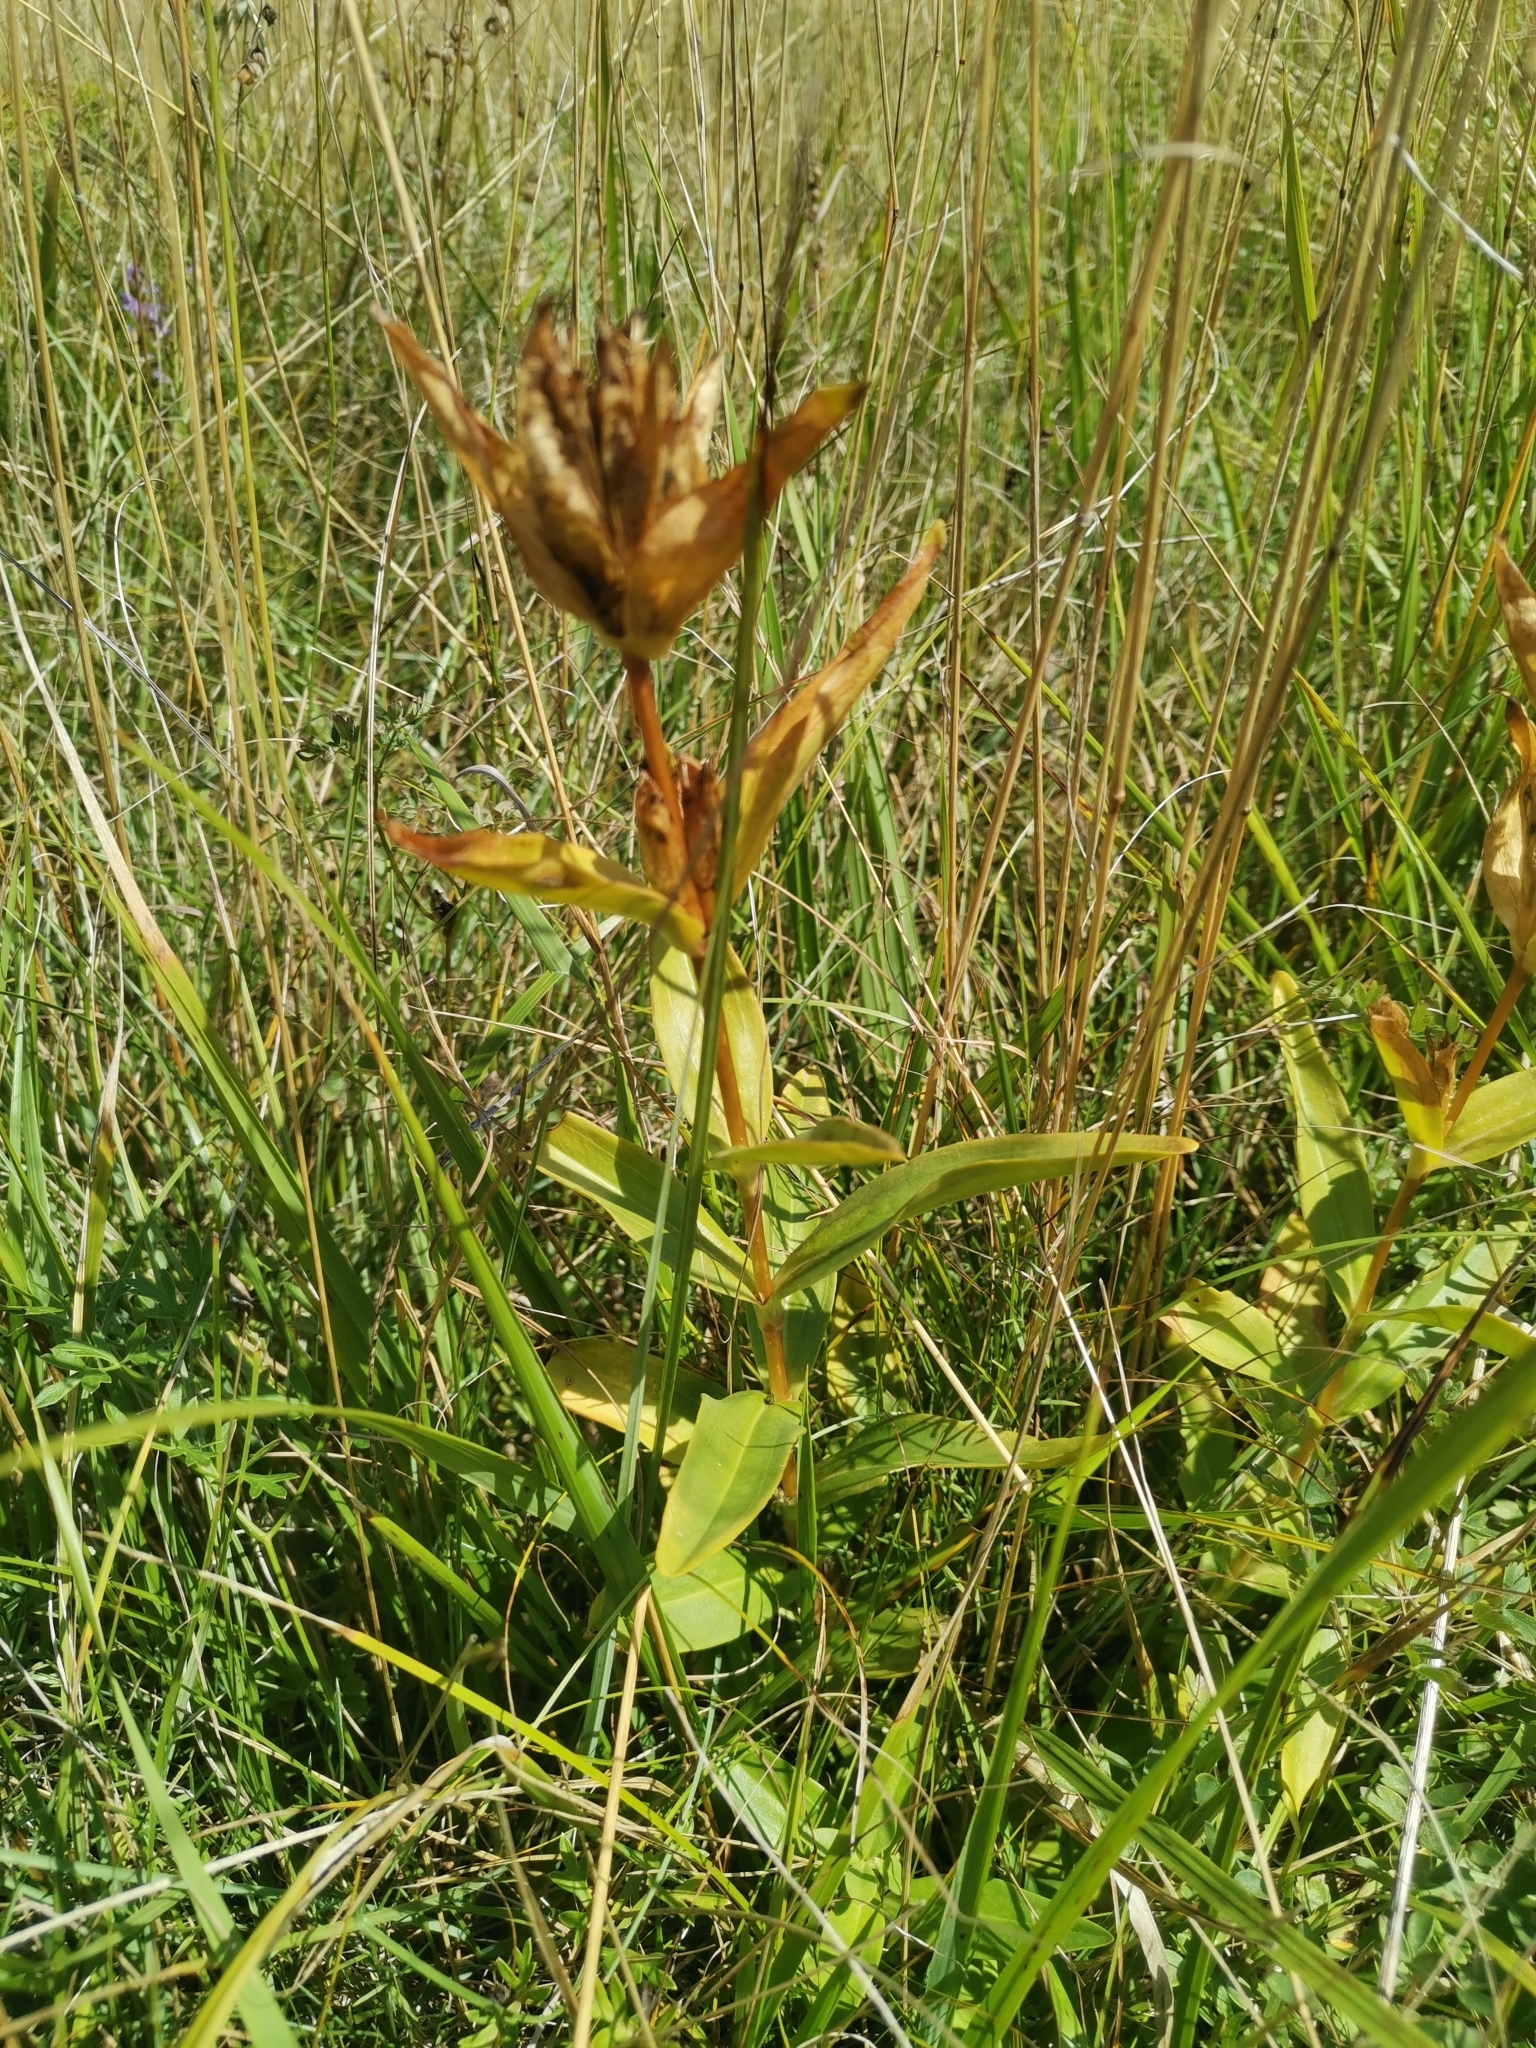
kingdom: Plantae
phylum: Tracheophyta
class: Magnoliopsida
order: Gentianales
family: Gentianaceae
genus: Gentiana
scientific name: Gentiana cruciata
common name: Cross gentian
